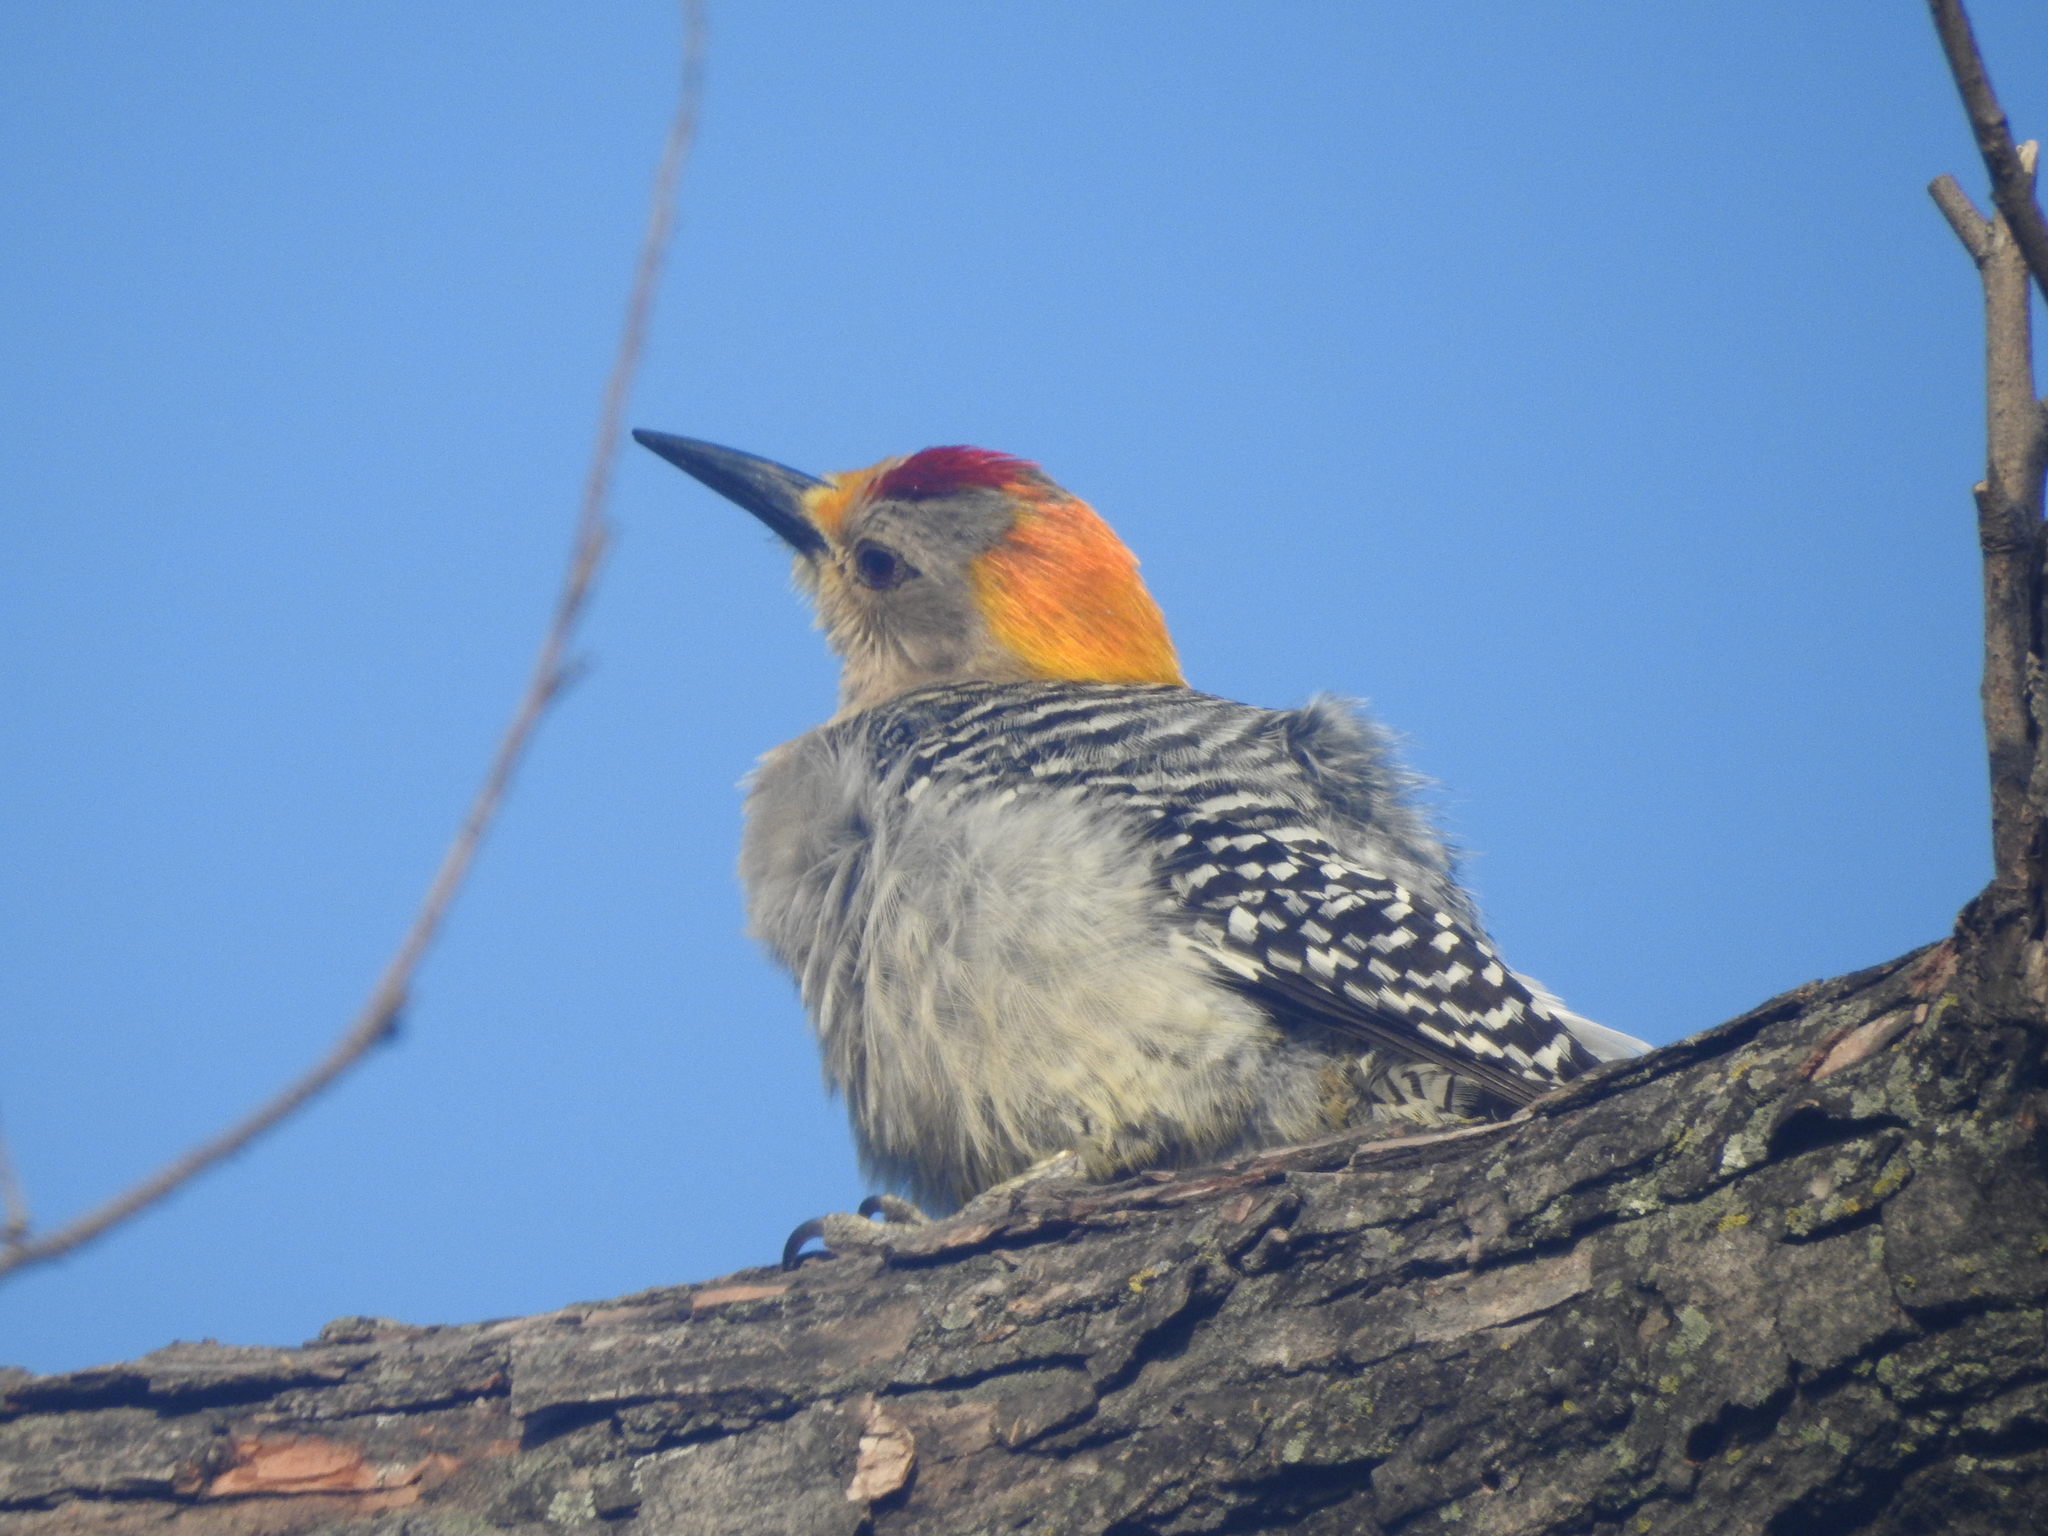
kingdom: Animalia
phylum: Chordata
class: Aves
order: Piciformes
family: Picidae
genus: Melanerpes
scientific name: Melanerpes aurifrons
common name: Golden-fronted woodpecker
